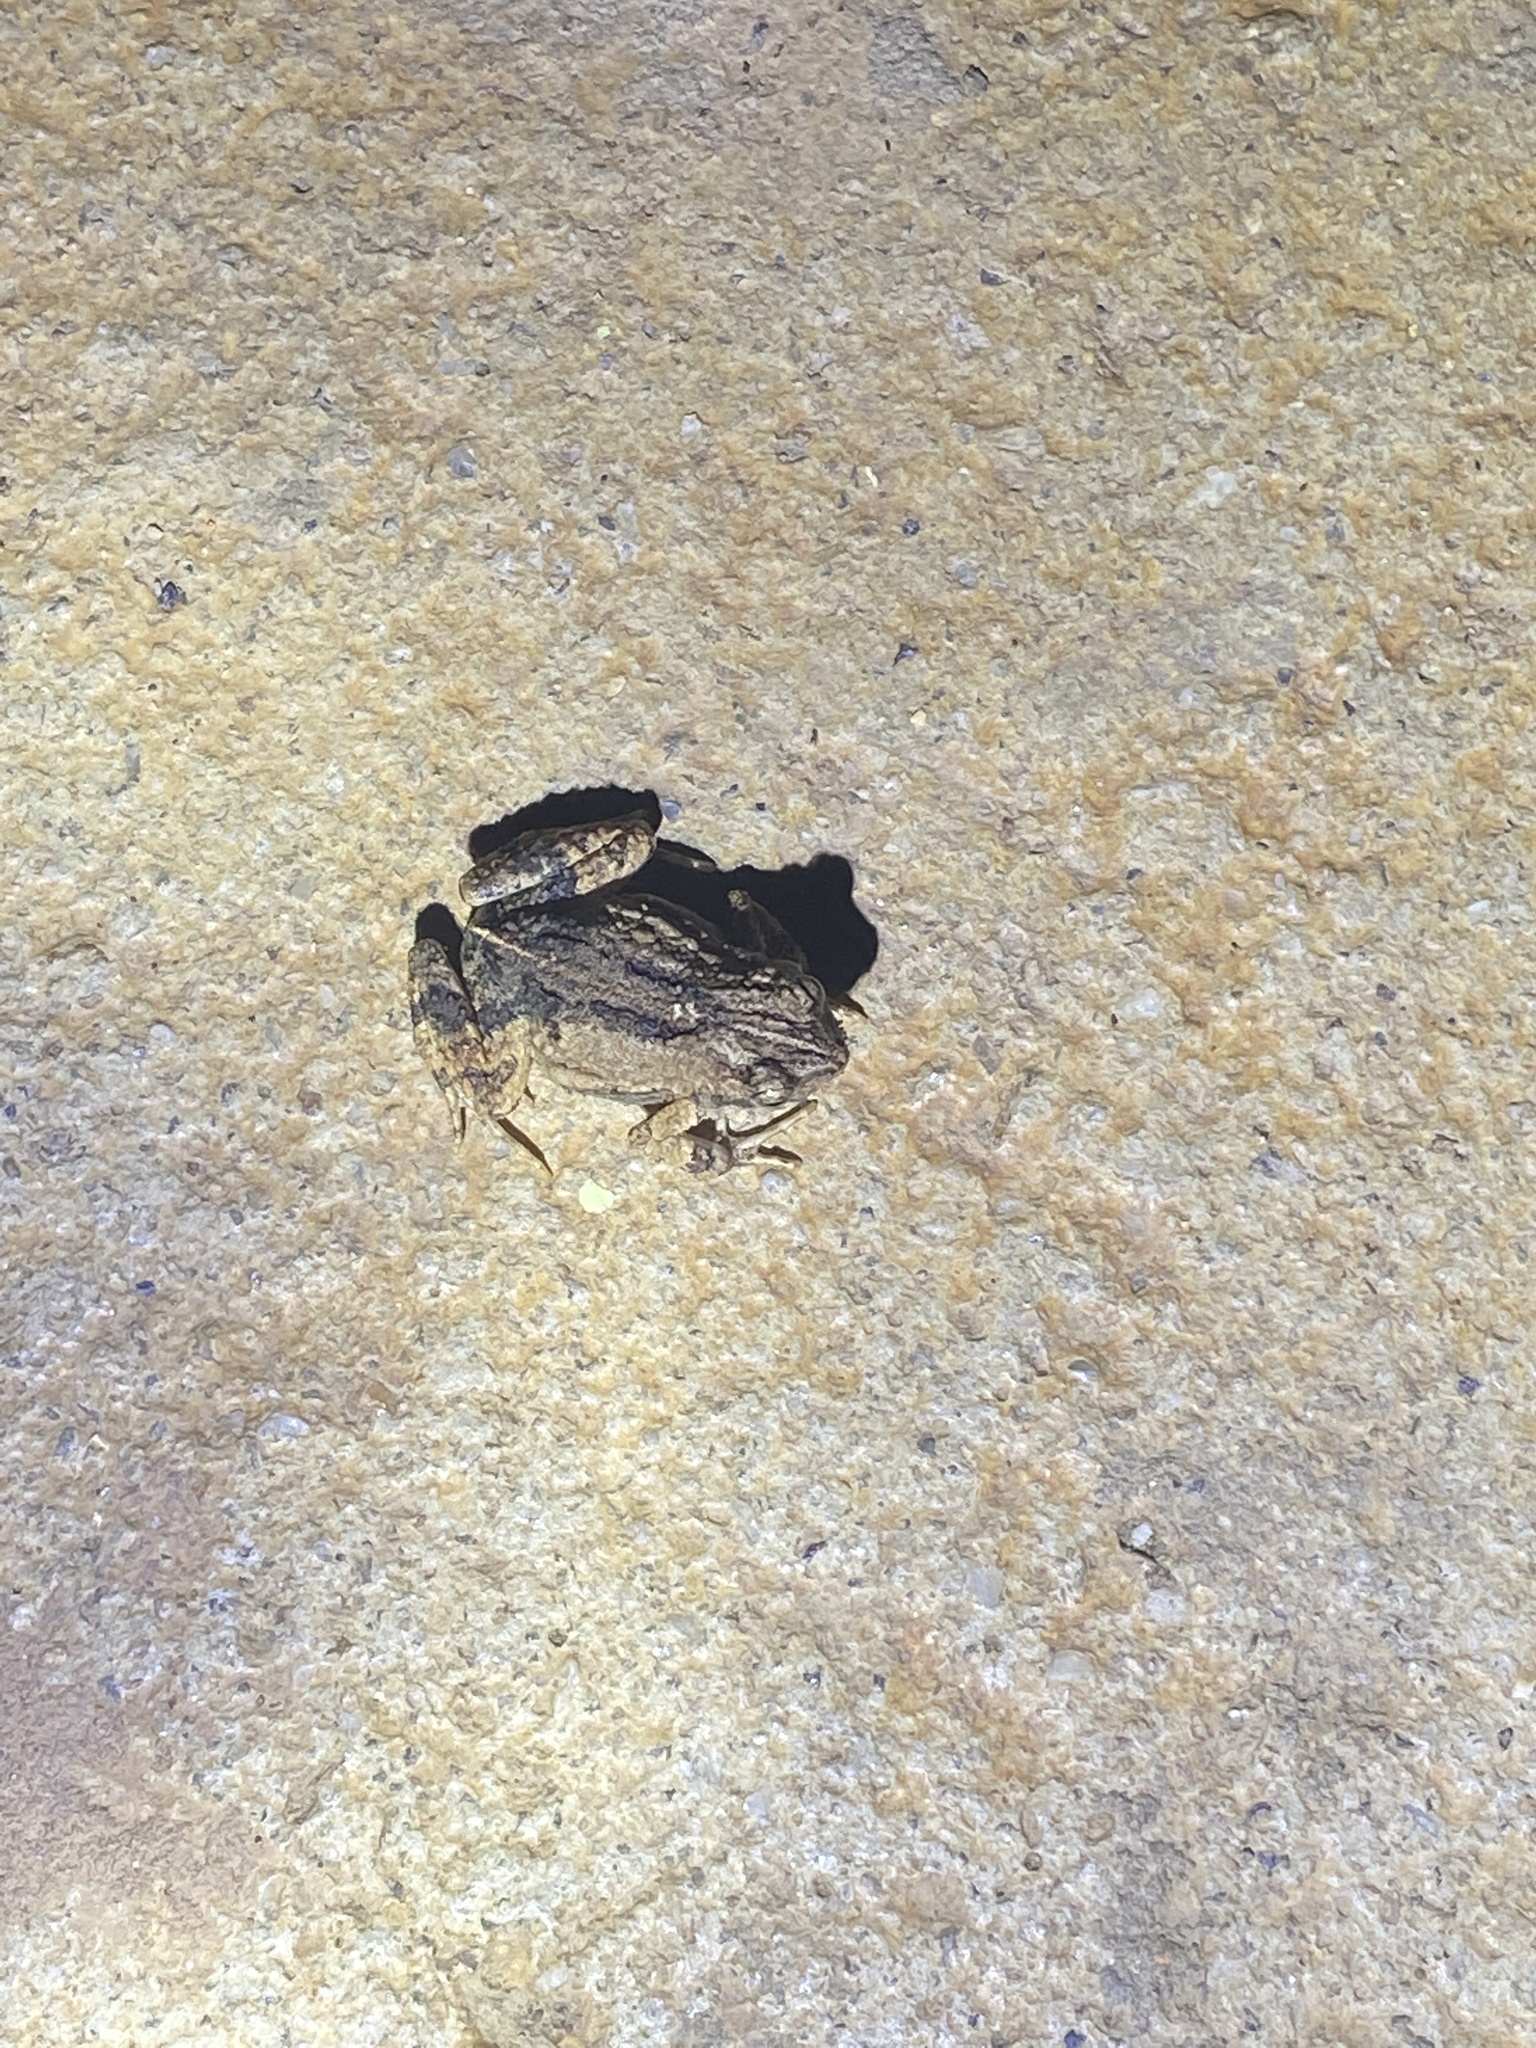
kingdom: Animalia
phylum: Chordata
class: Amphibia
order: Anura
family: Leptodactylidae
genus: Engystomops
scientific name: Engystomops pustulosus
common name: Tungara frog
